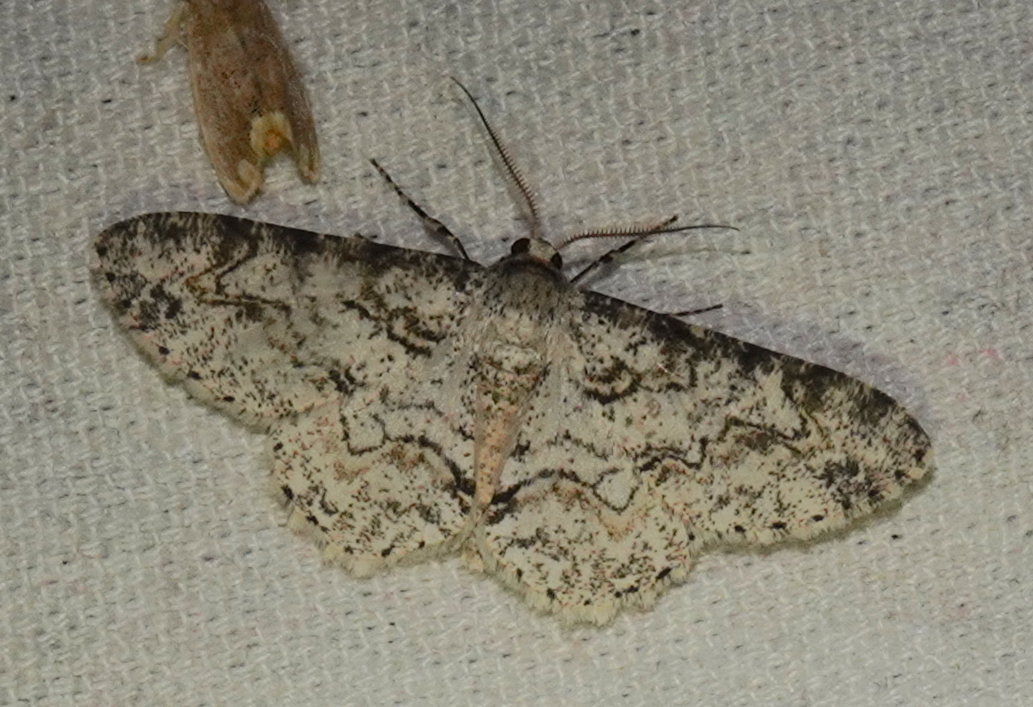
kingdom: Animalia
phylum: Arthropoda
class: Insecta
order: Lepidoptera
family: Geometridae
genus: Cusiala
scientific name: Cusiala boarmoides
